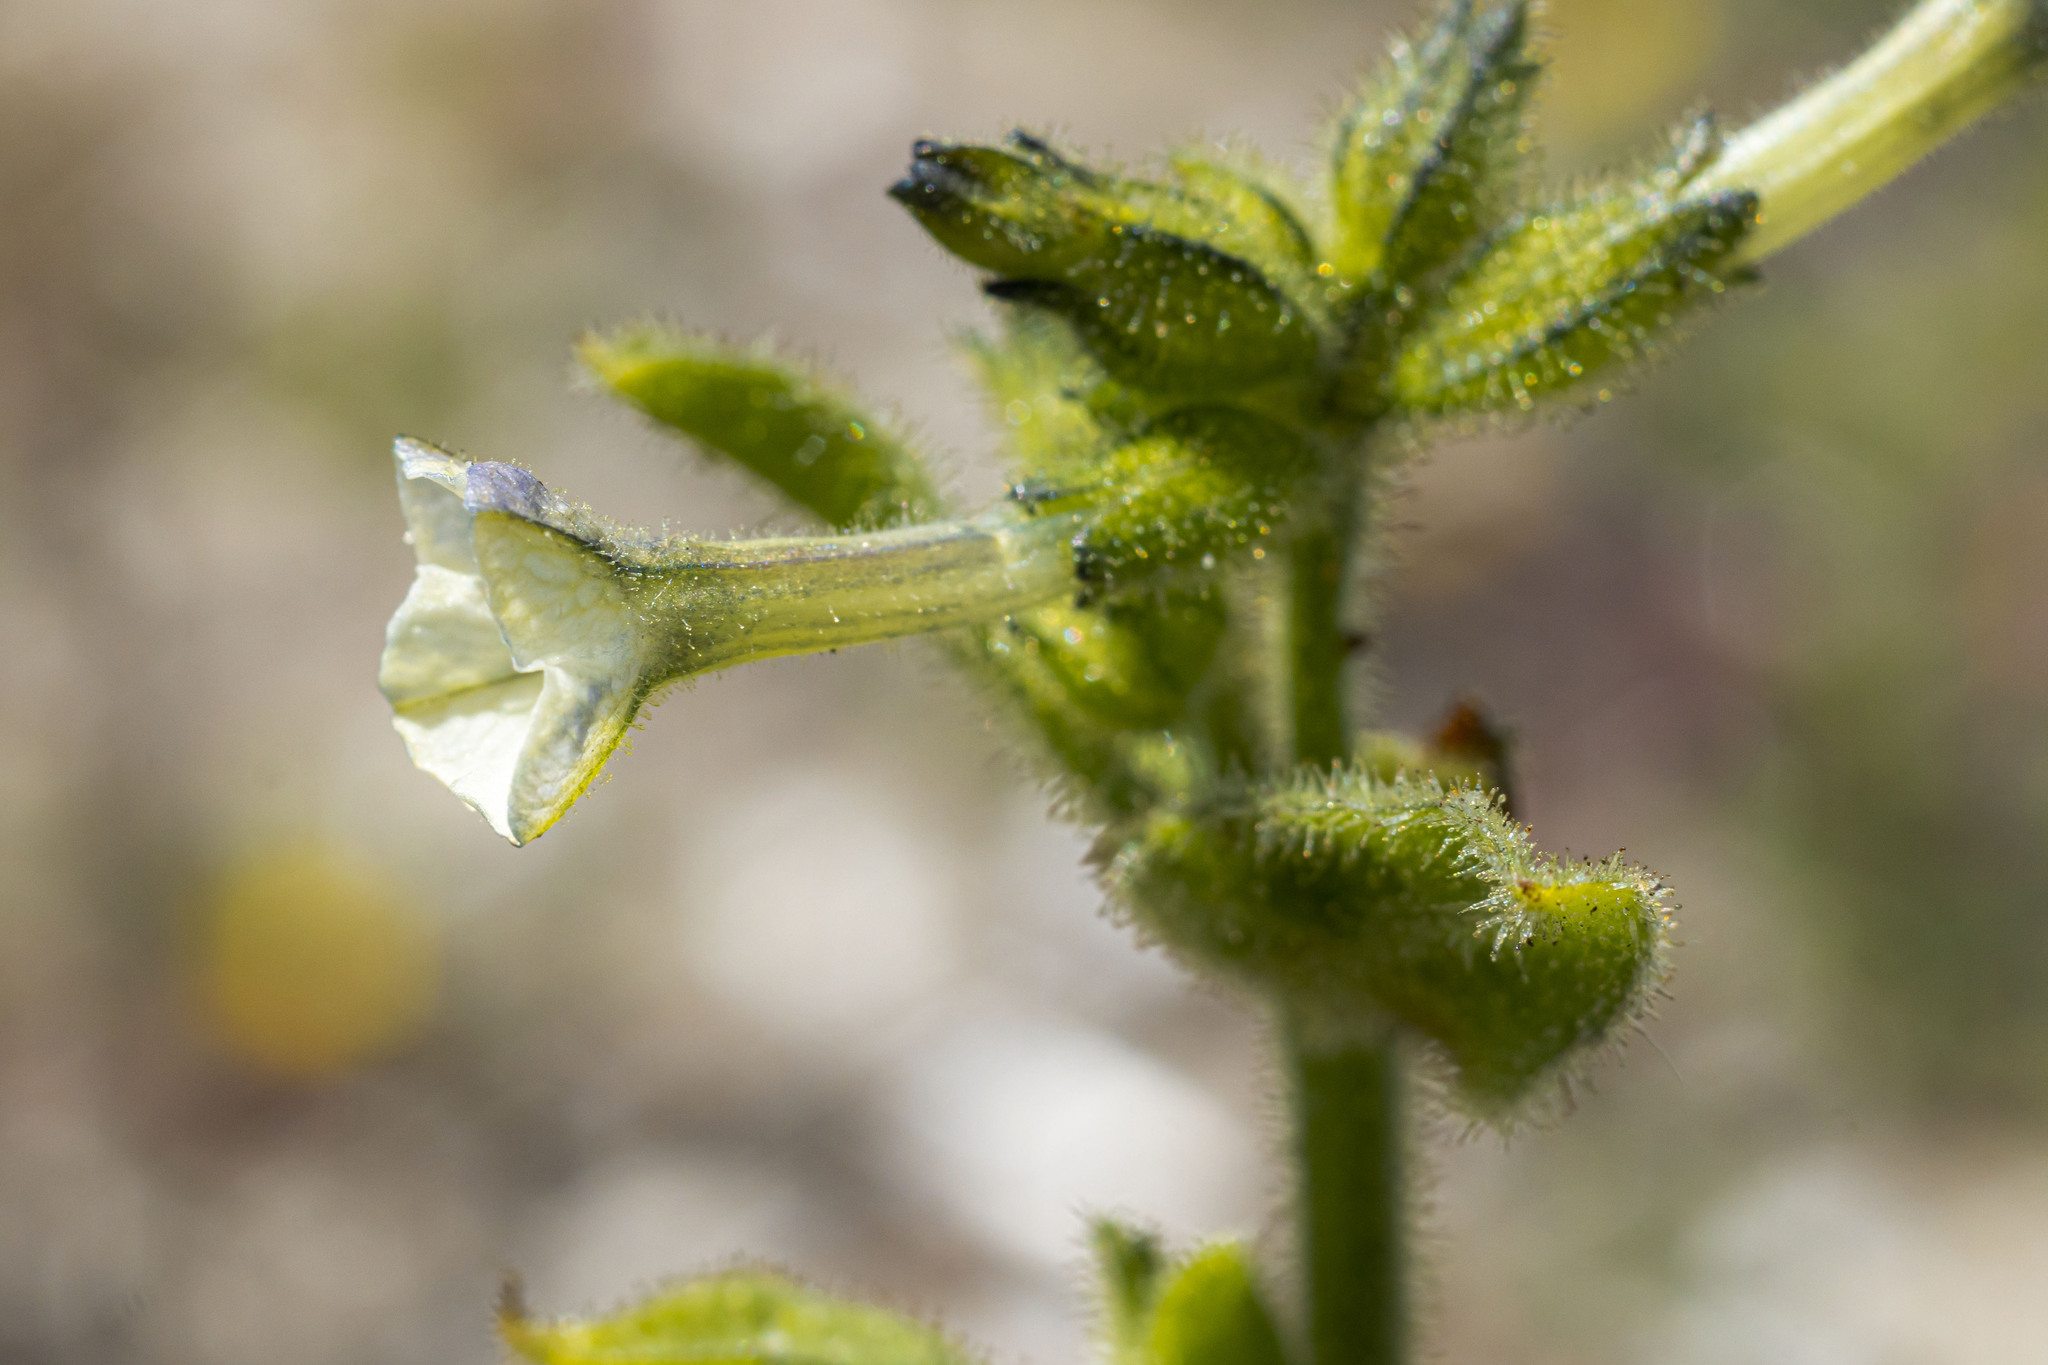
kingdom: Plantae
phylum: Tracheophyta
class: Magnoliopsida
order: Solanales
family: Solanaceae
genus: Nicotiana
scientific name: Nicotiana clevelandii
